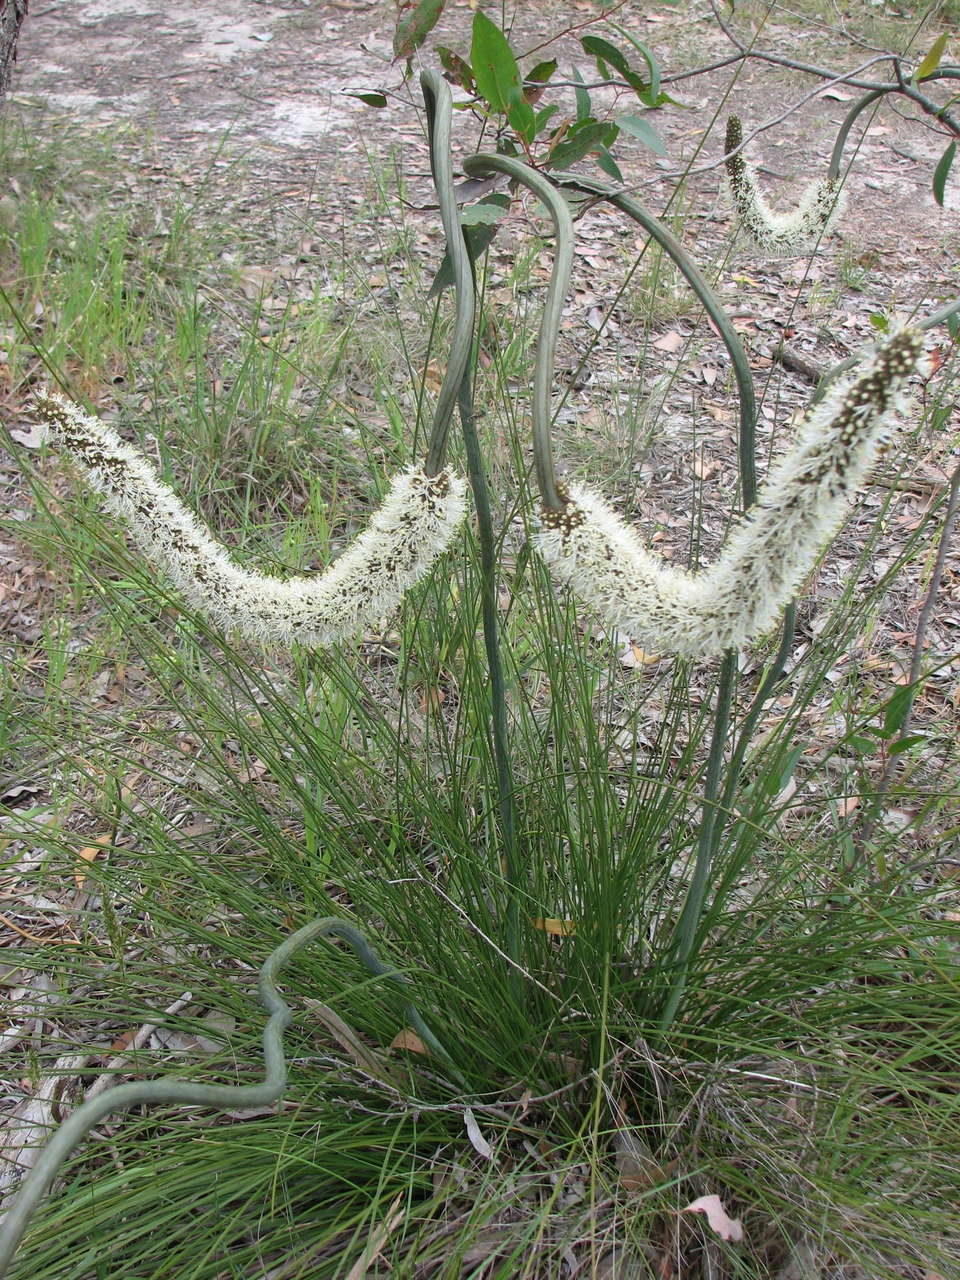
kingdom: Plantae
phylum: Tracheophyta
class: Liliopsida
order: Asparagales
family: Asphodelaceae
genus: Xanthorrhoea
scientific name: Xanthorrhoea minor
